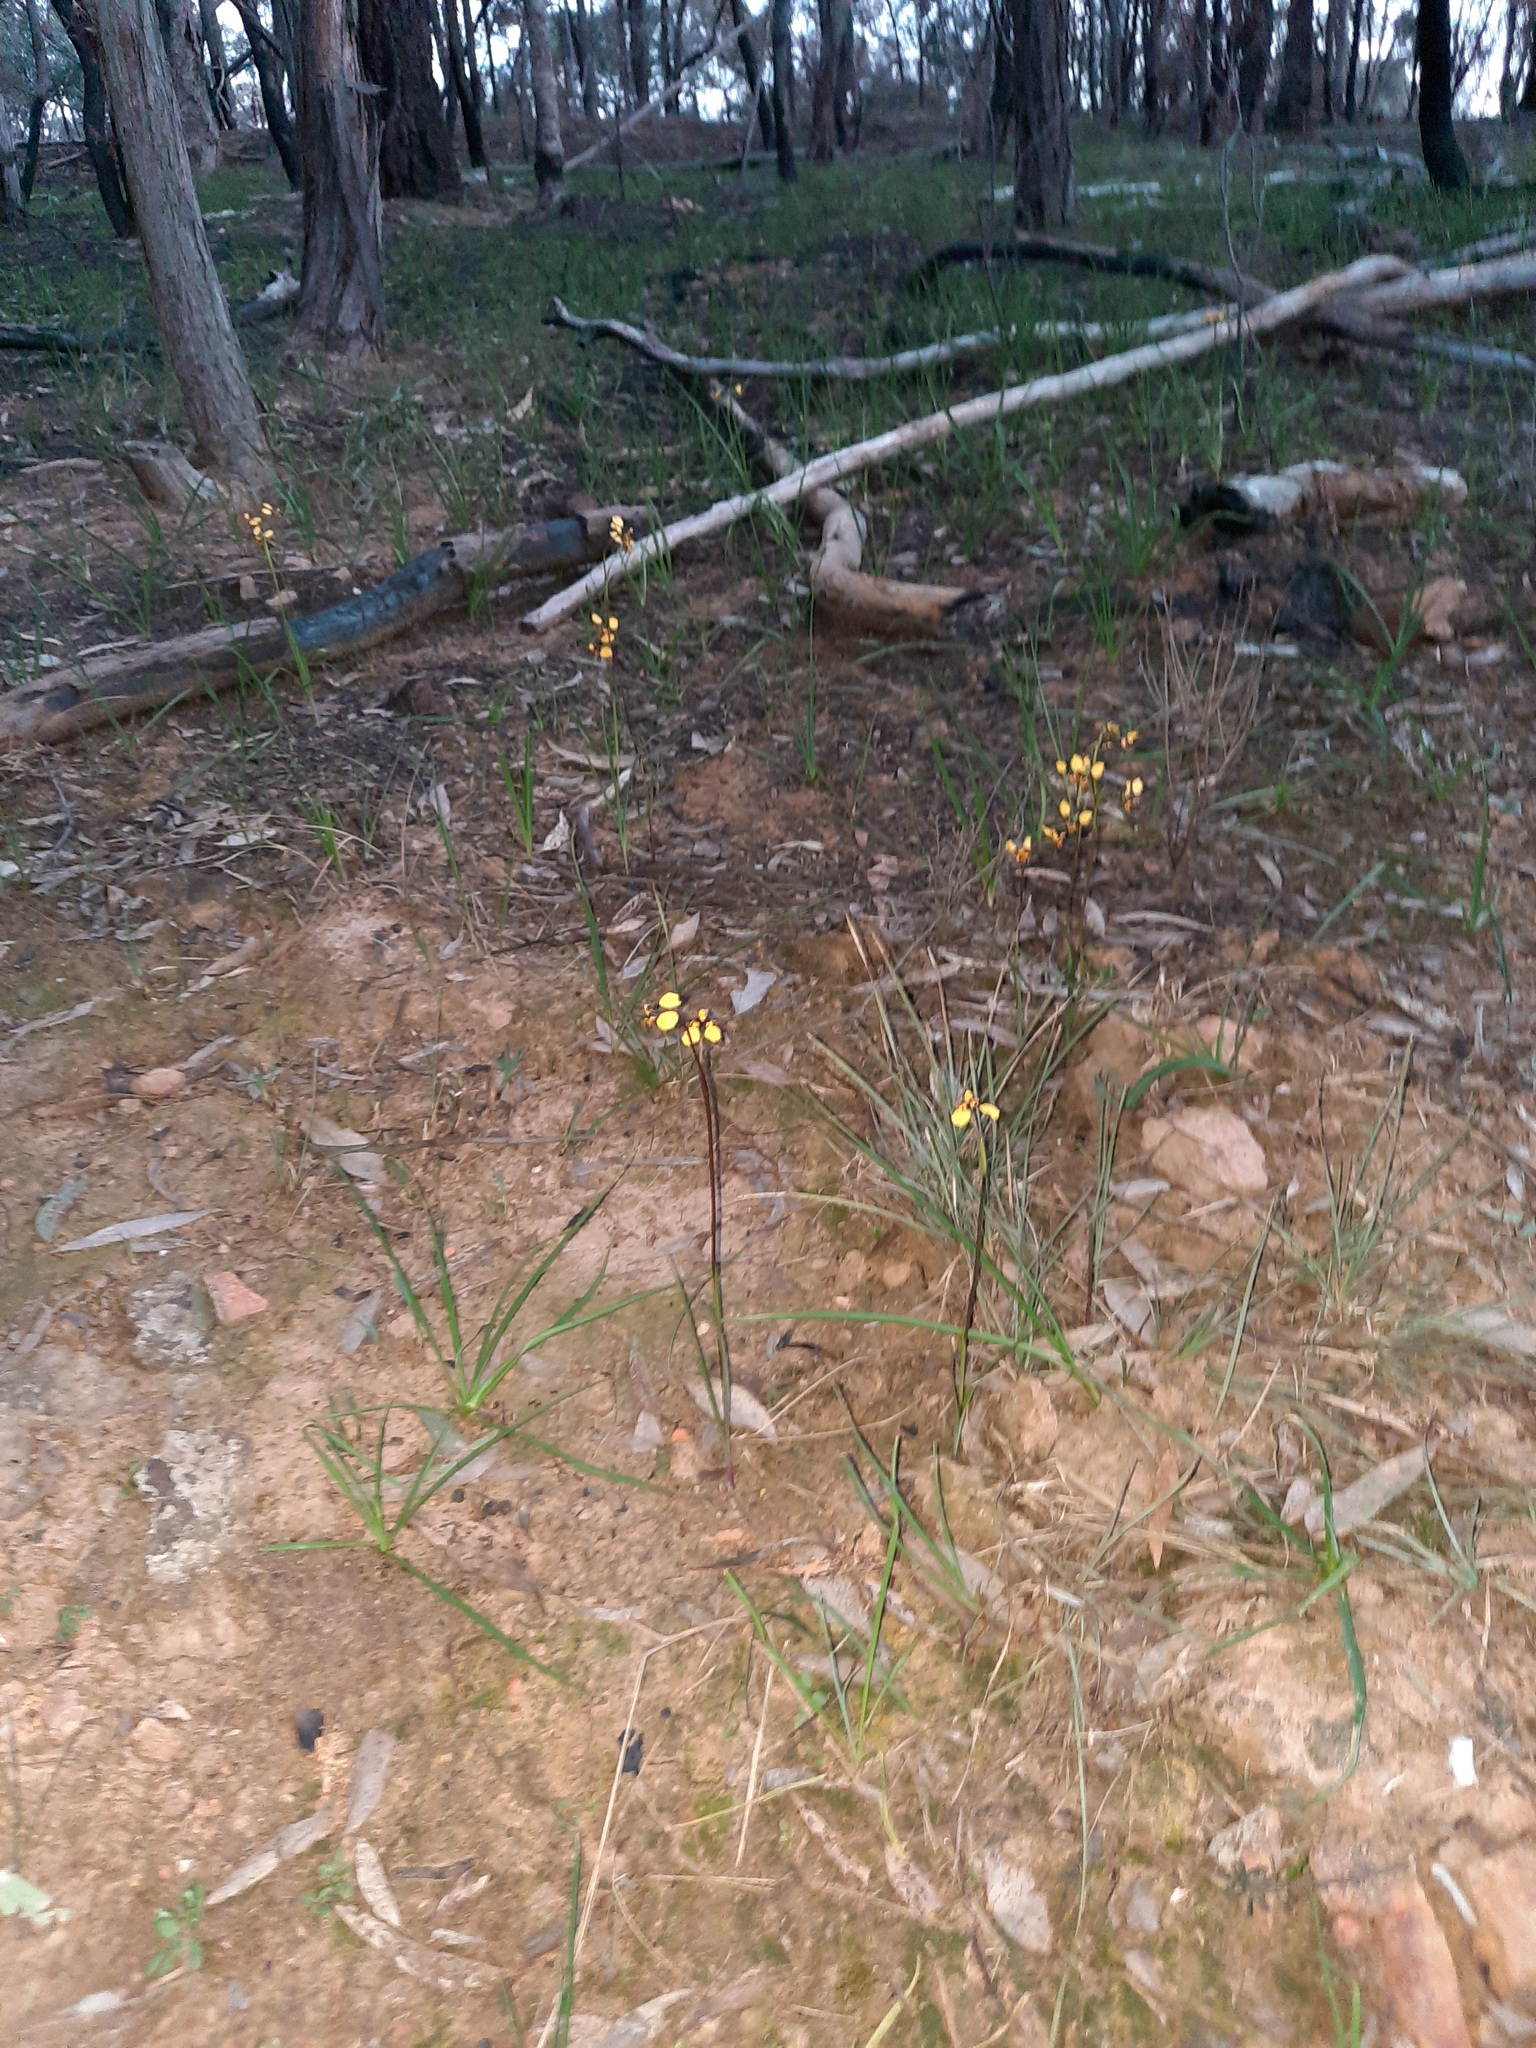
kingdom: Plantae
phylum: Tracheophyta
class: Liliopsida
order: Asparagales
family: Orchidaceae
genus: Diuris
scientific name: Diuris pardina
